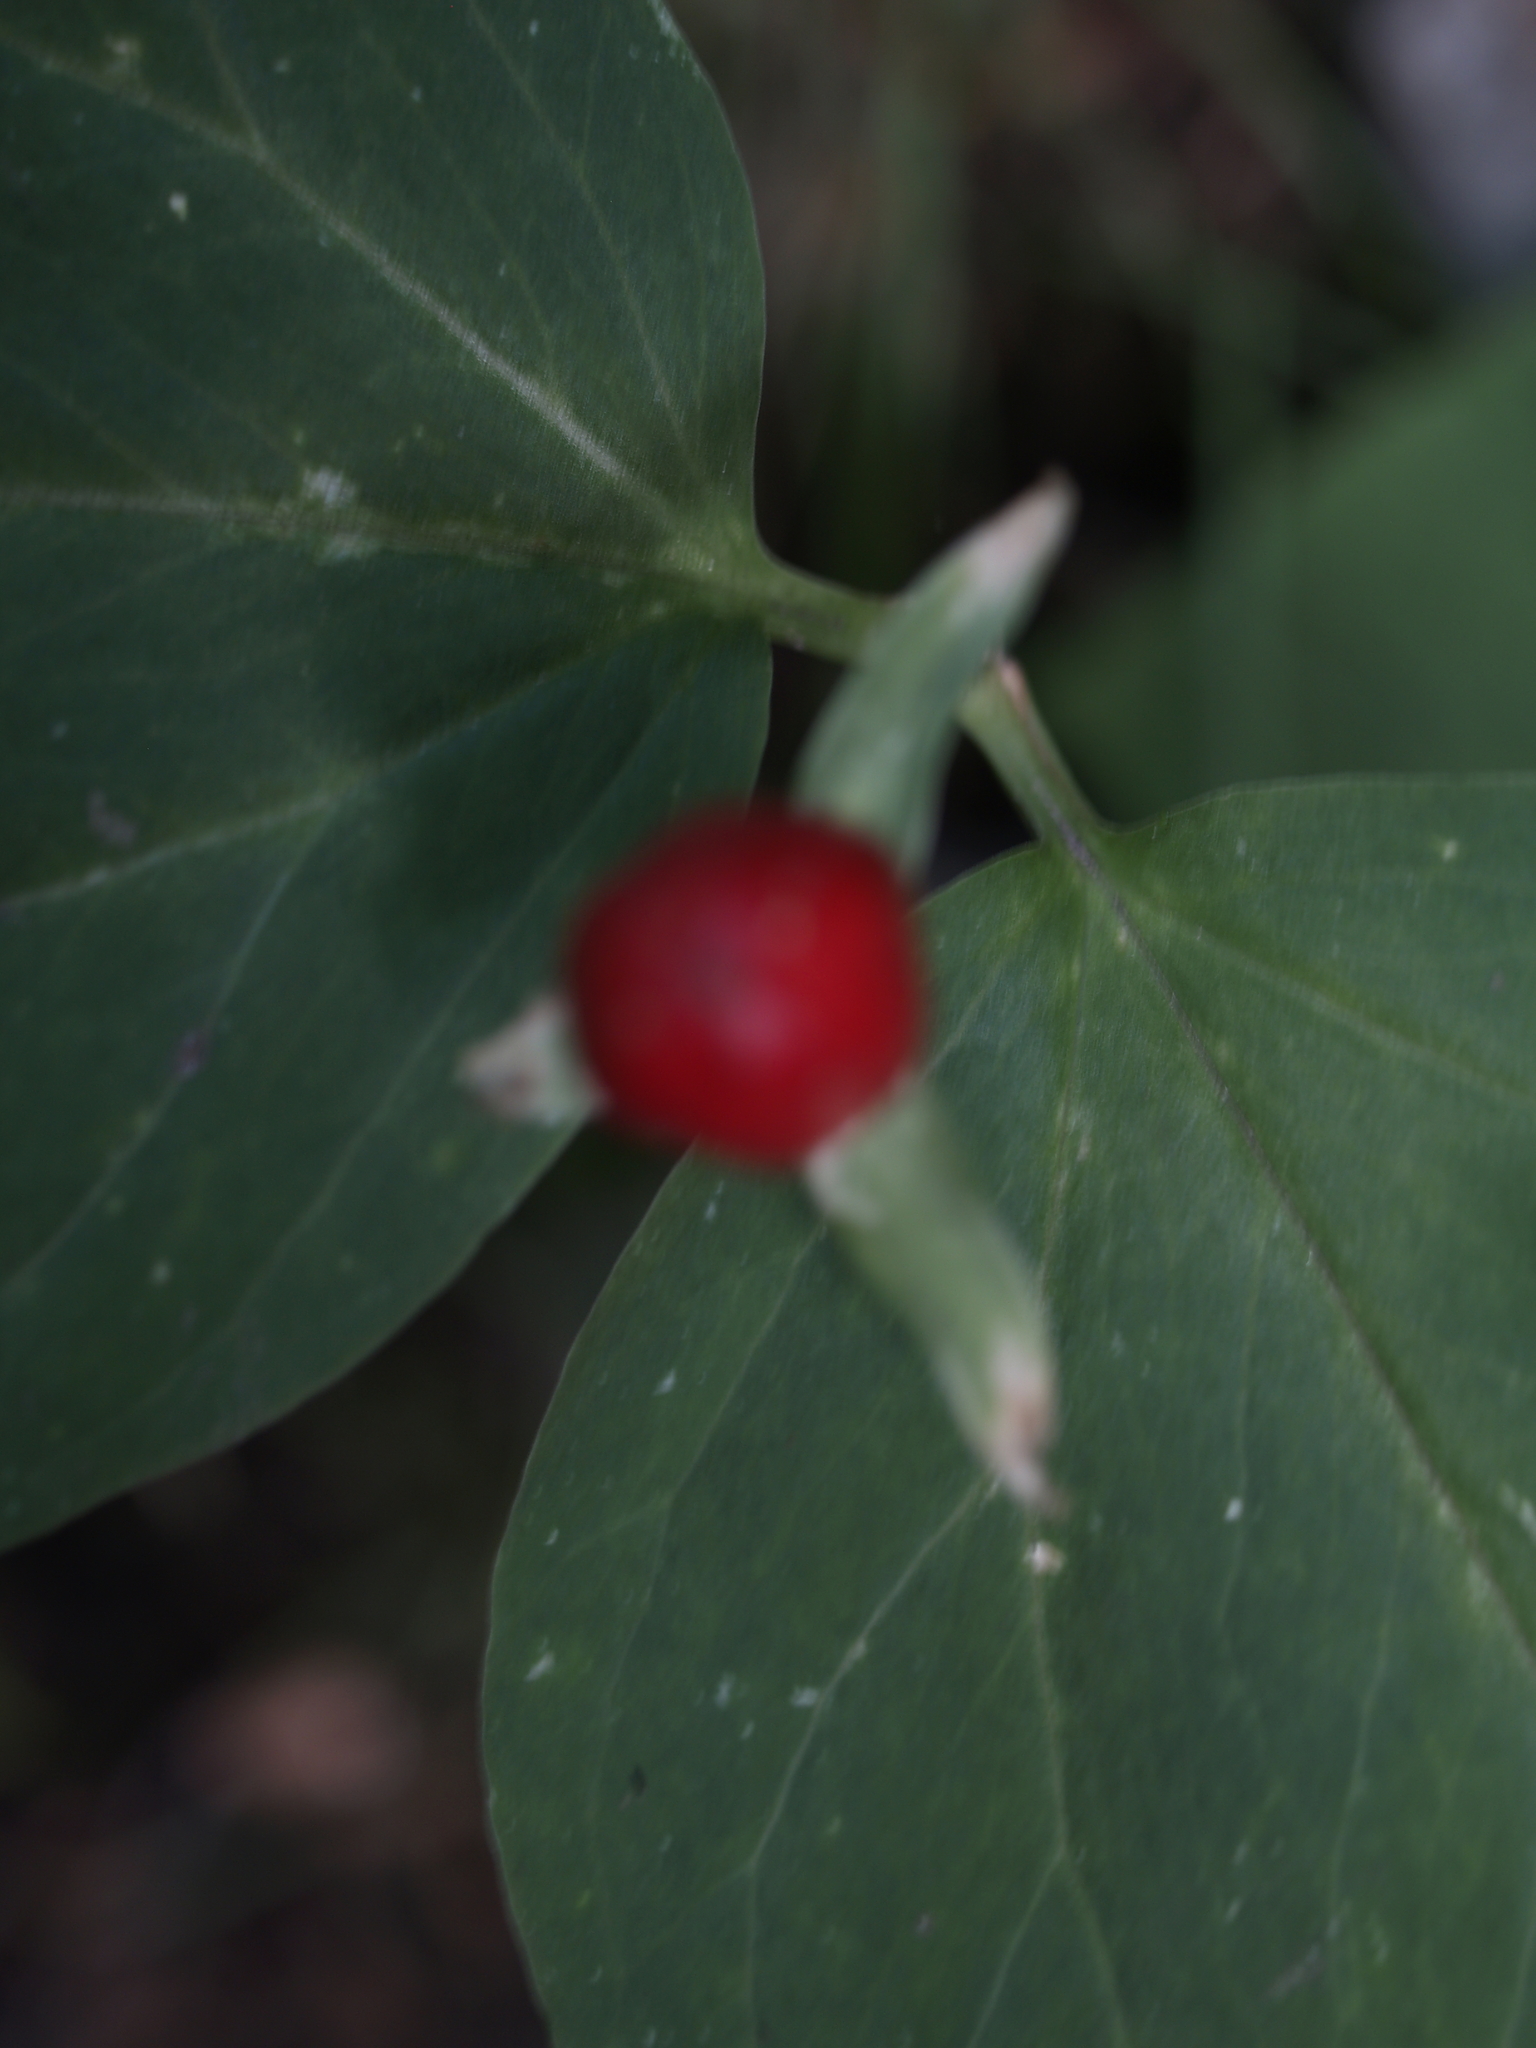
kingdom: Plantae
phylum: Tracheophyta
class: Liliopsida
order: Liliales
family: Melanthiaceae
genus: Trillium
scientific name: Trillium undulatum
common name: Paint trillium
